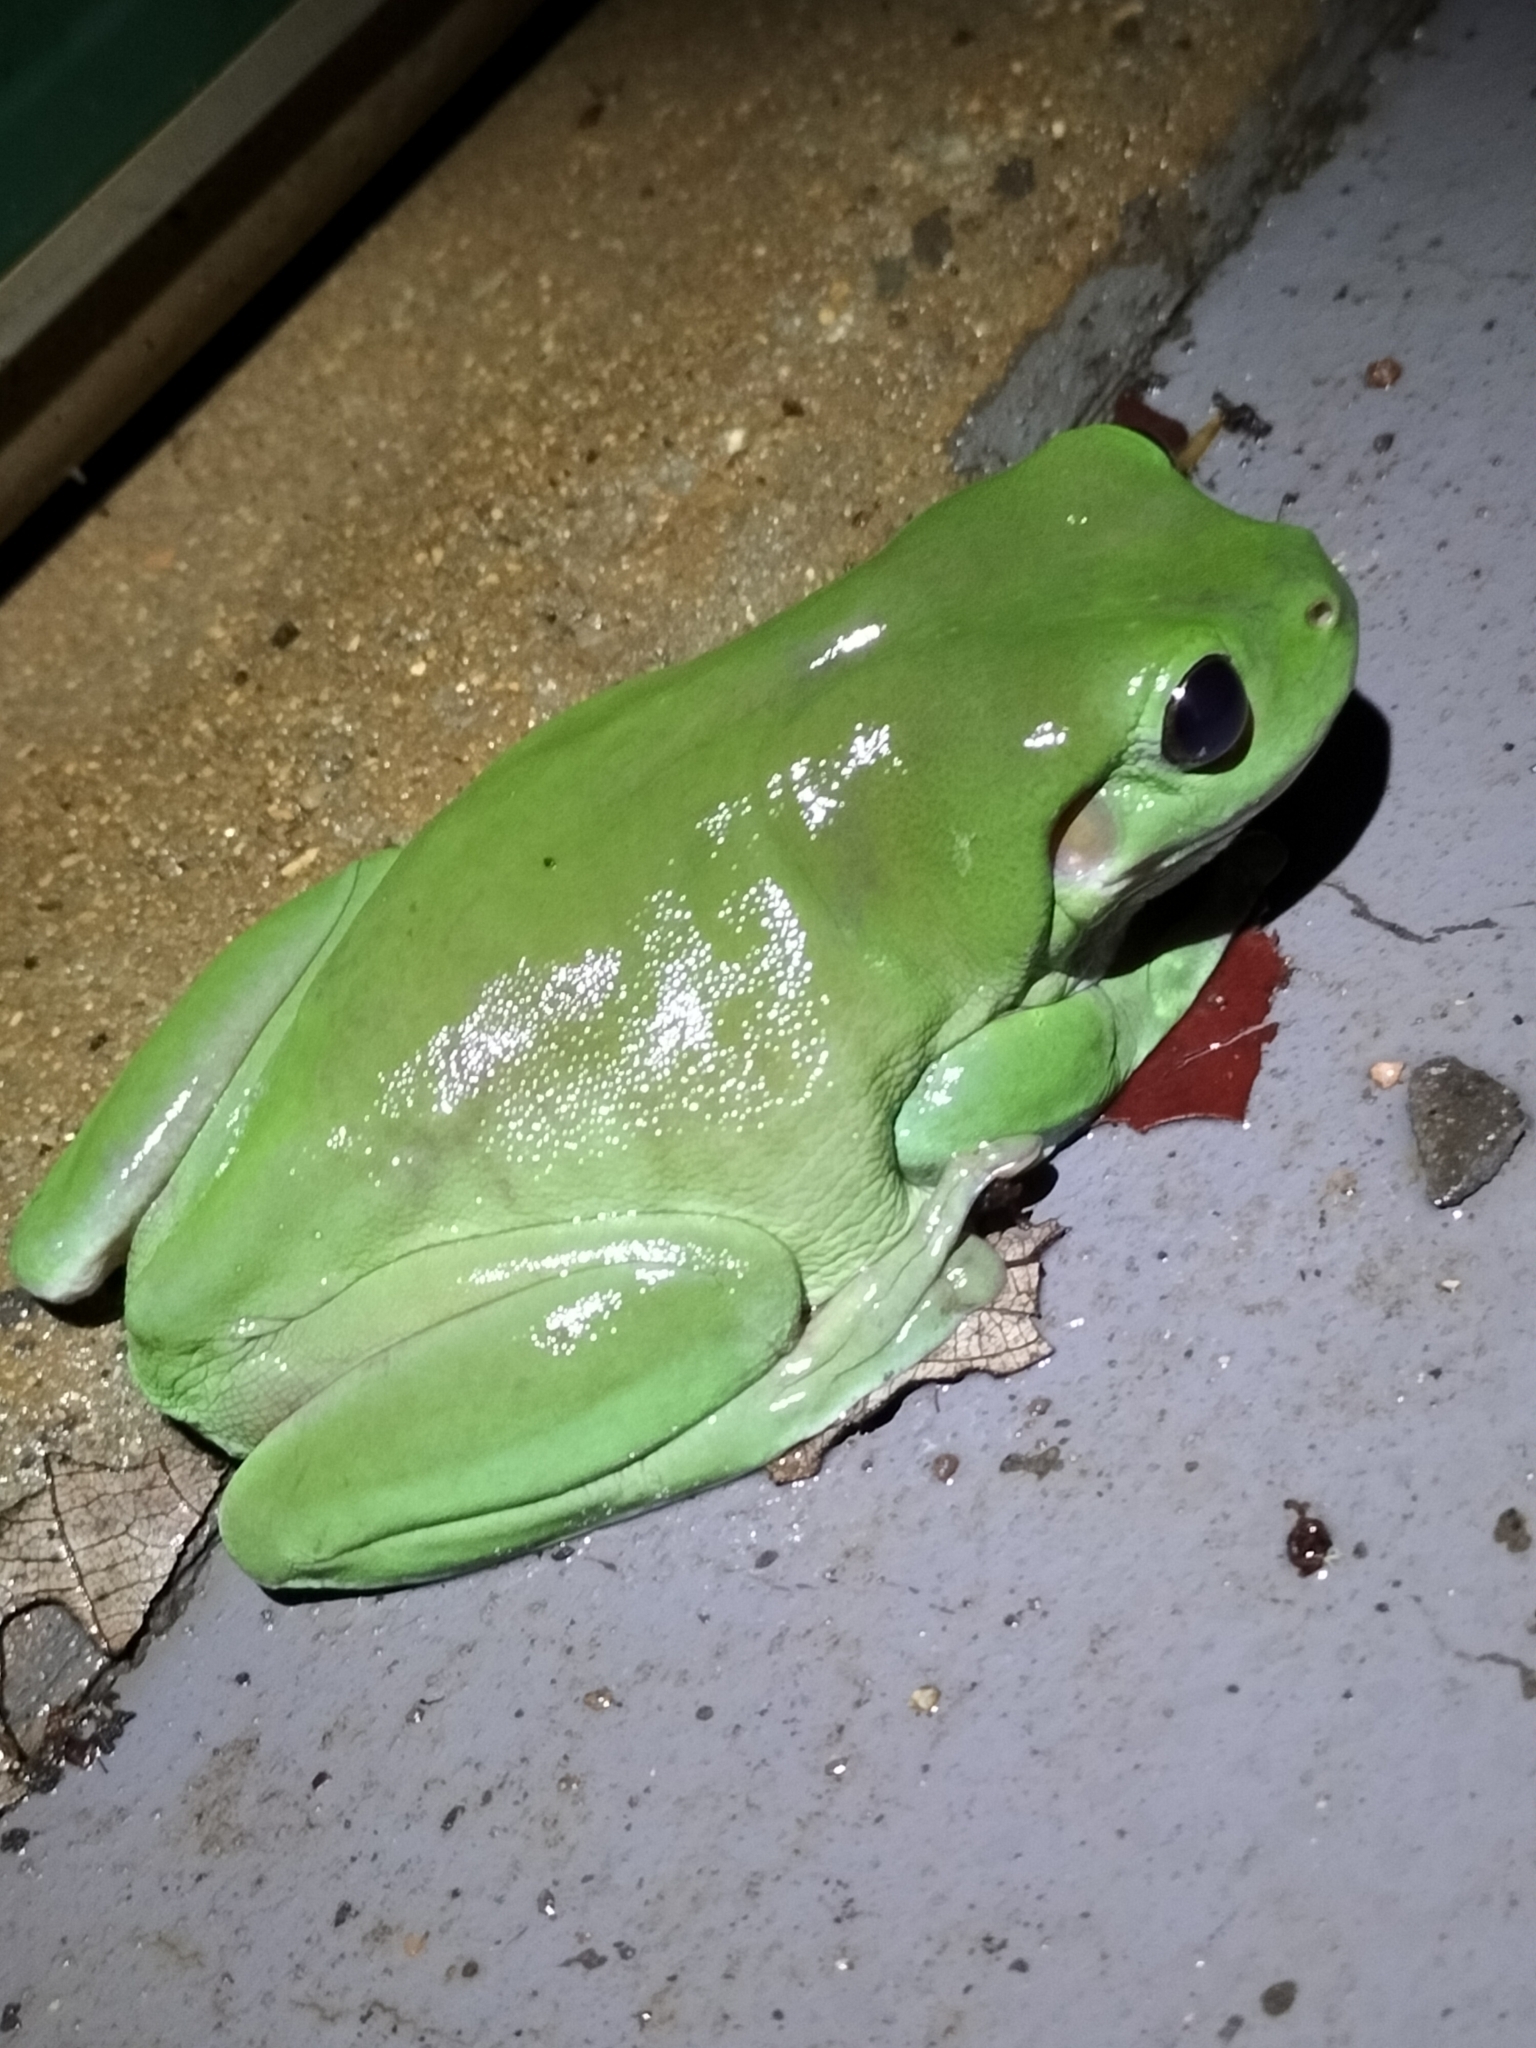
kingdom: Animalia
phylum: Chordata
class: Amphibia
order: Anura
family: Pelodryadidae
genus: Ranoidea
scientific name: Ranoidea caerulea
